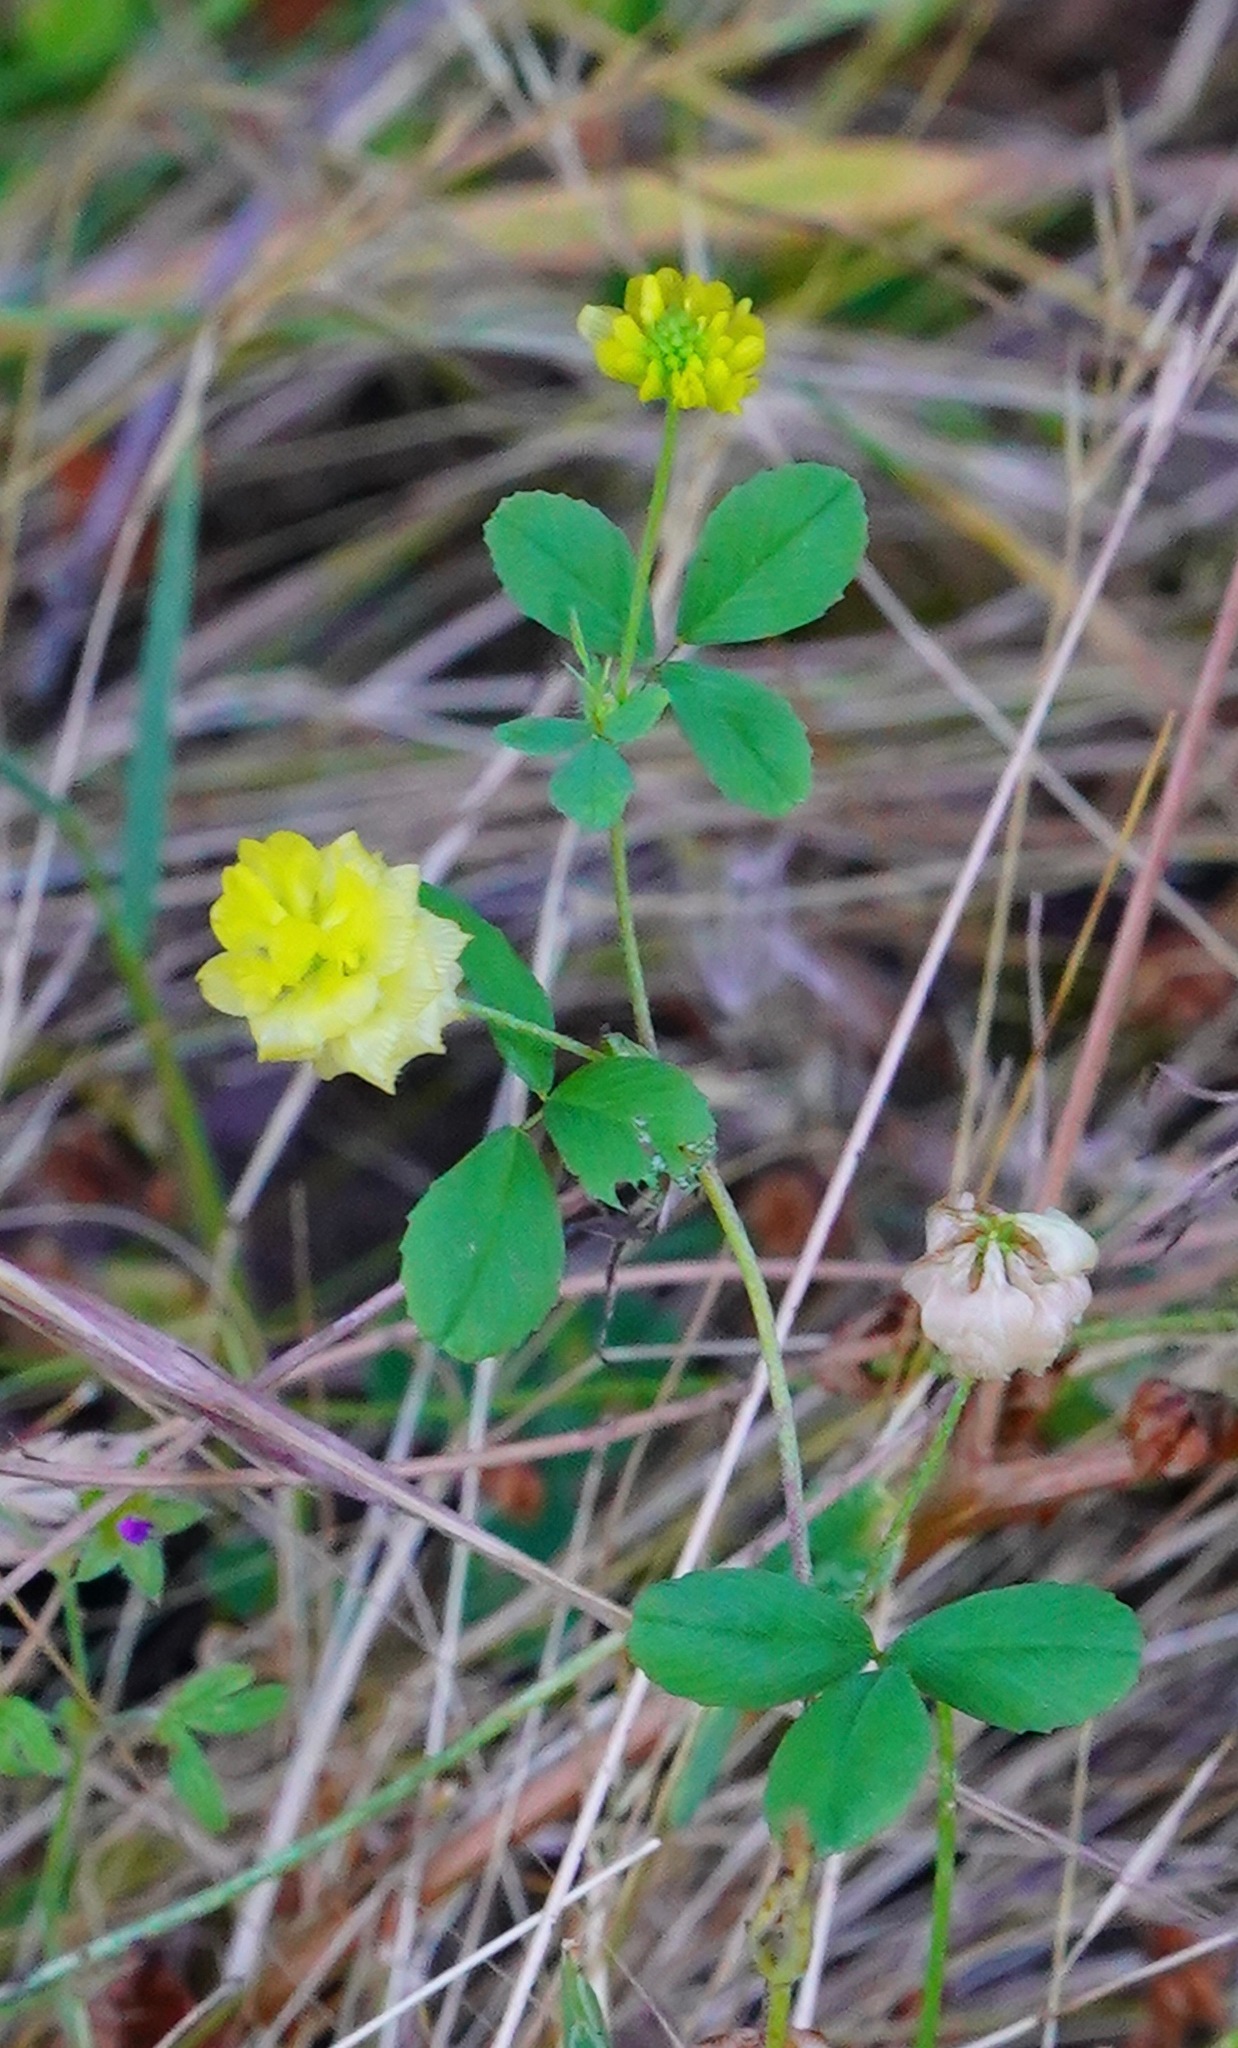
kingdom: Plantae
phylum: Tracheophyta
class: Magnoliopsida
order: Fabales
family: Fabaceae
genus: Trifolium
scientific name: Trifolium campestre
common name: Field clover
